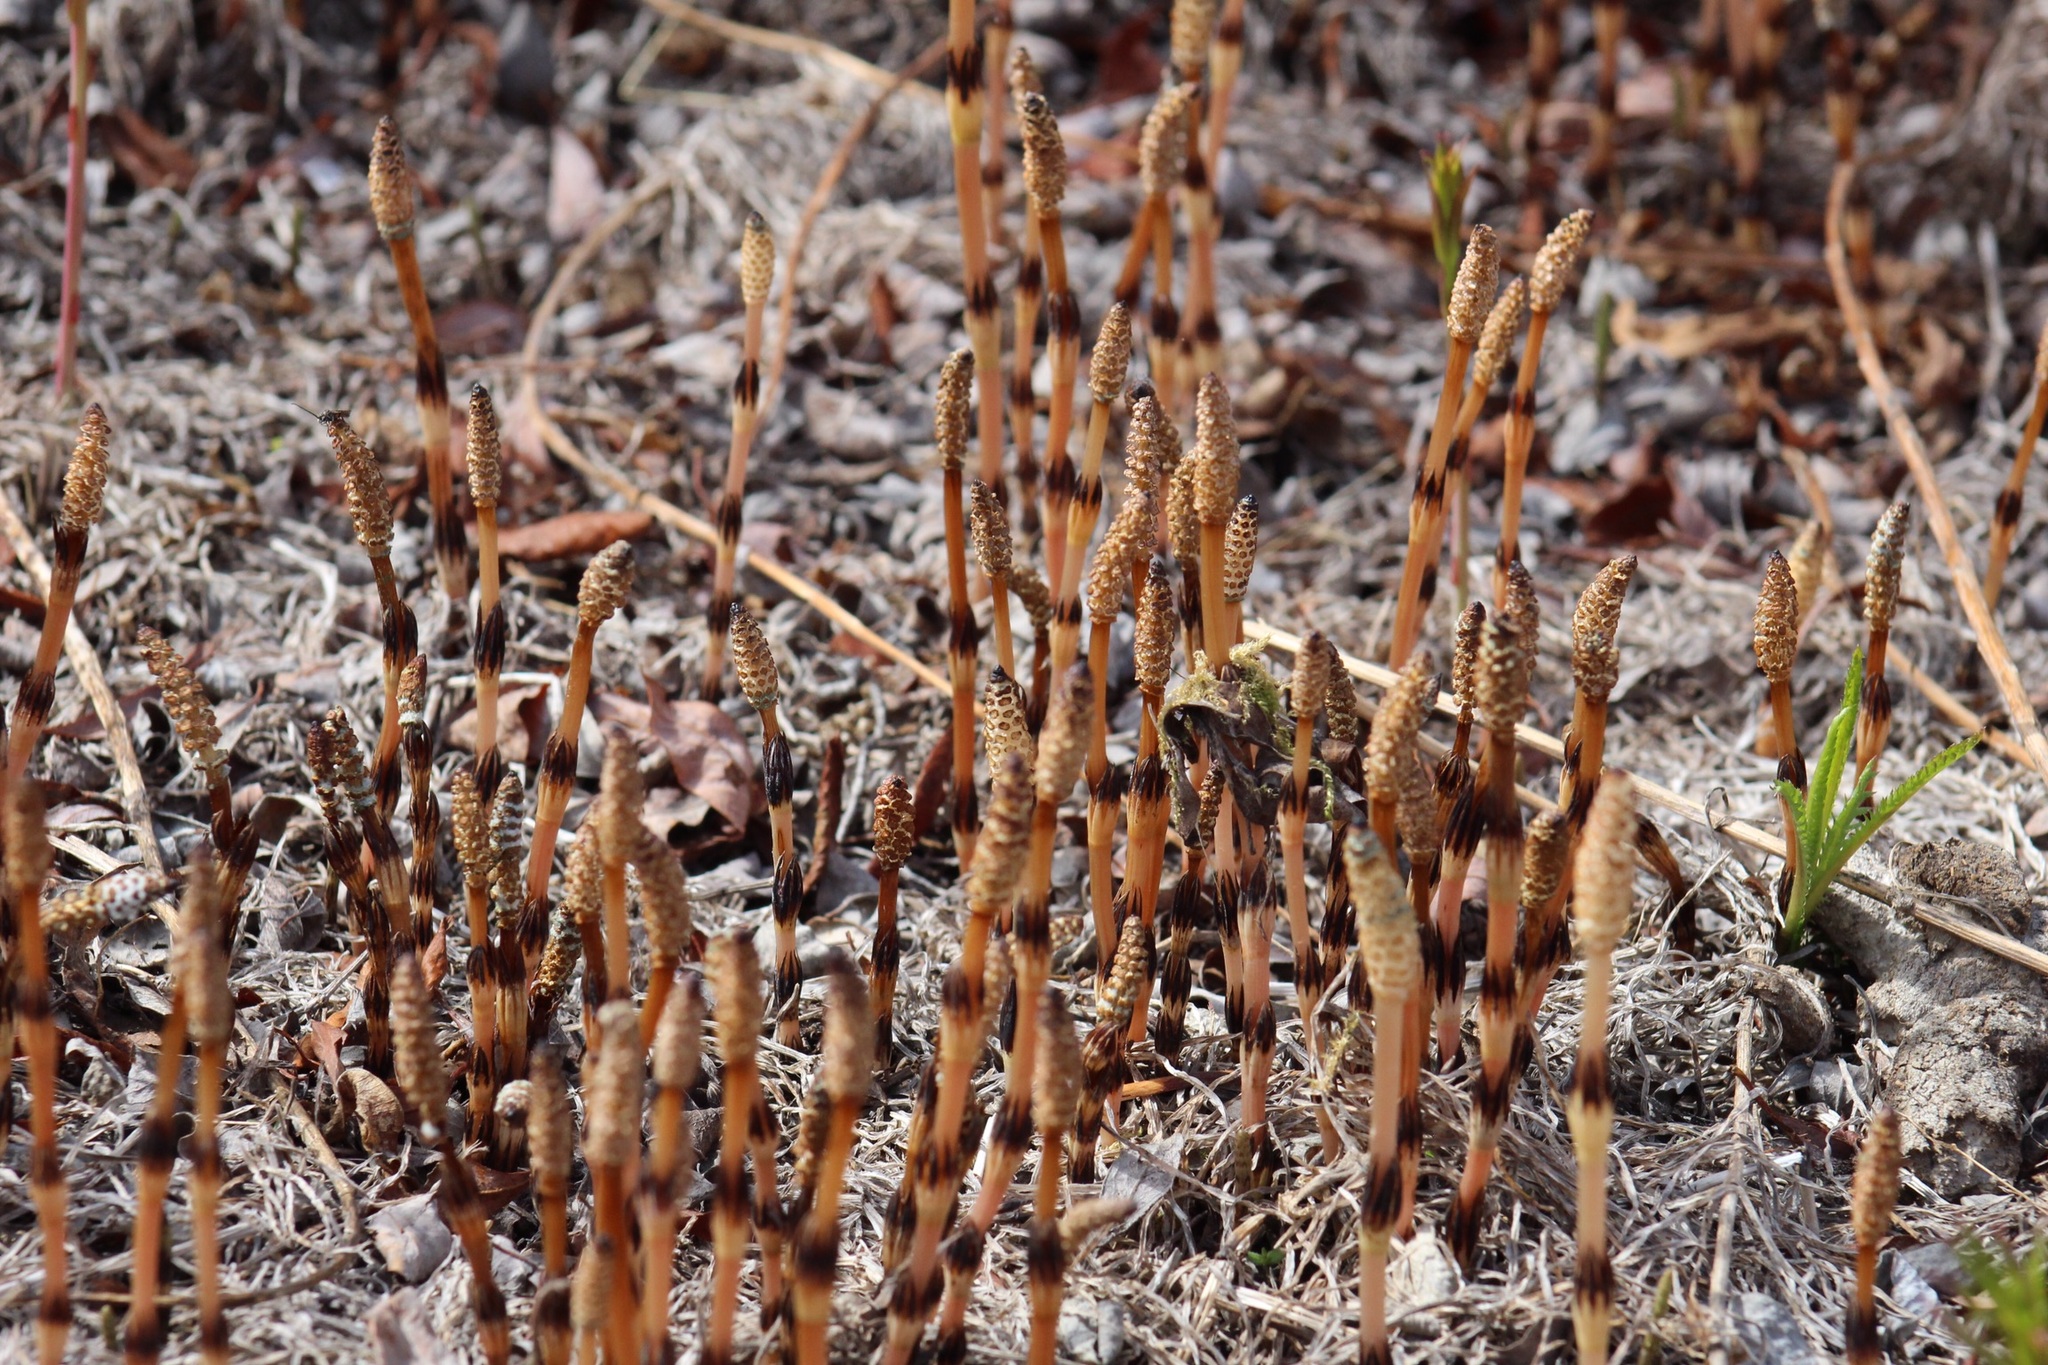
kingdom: Plantae
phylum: Tracheophyta
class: Polypodiopsida
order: Equisetales
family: Equisetaceae
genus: Equisetum
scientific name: Equisetum arvense
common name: Field horsetail
